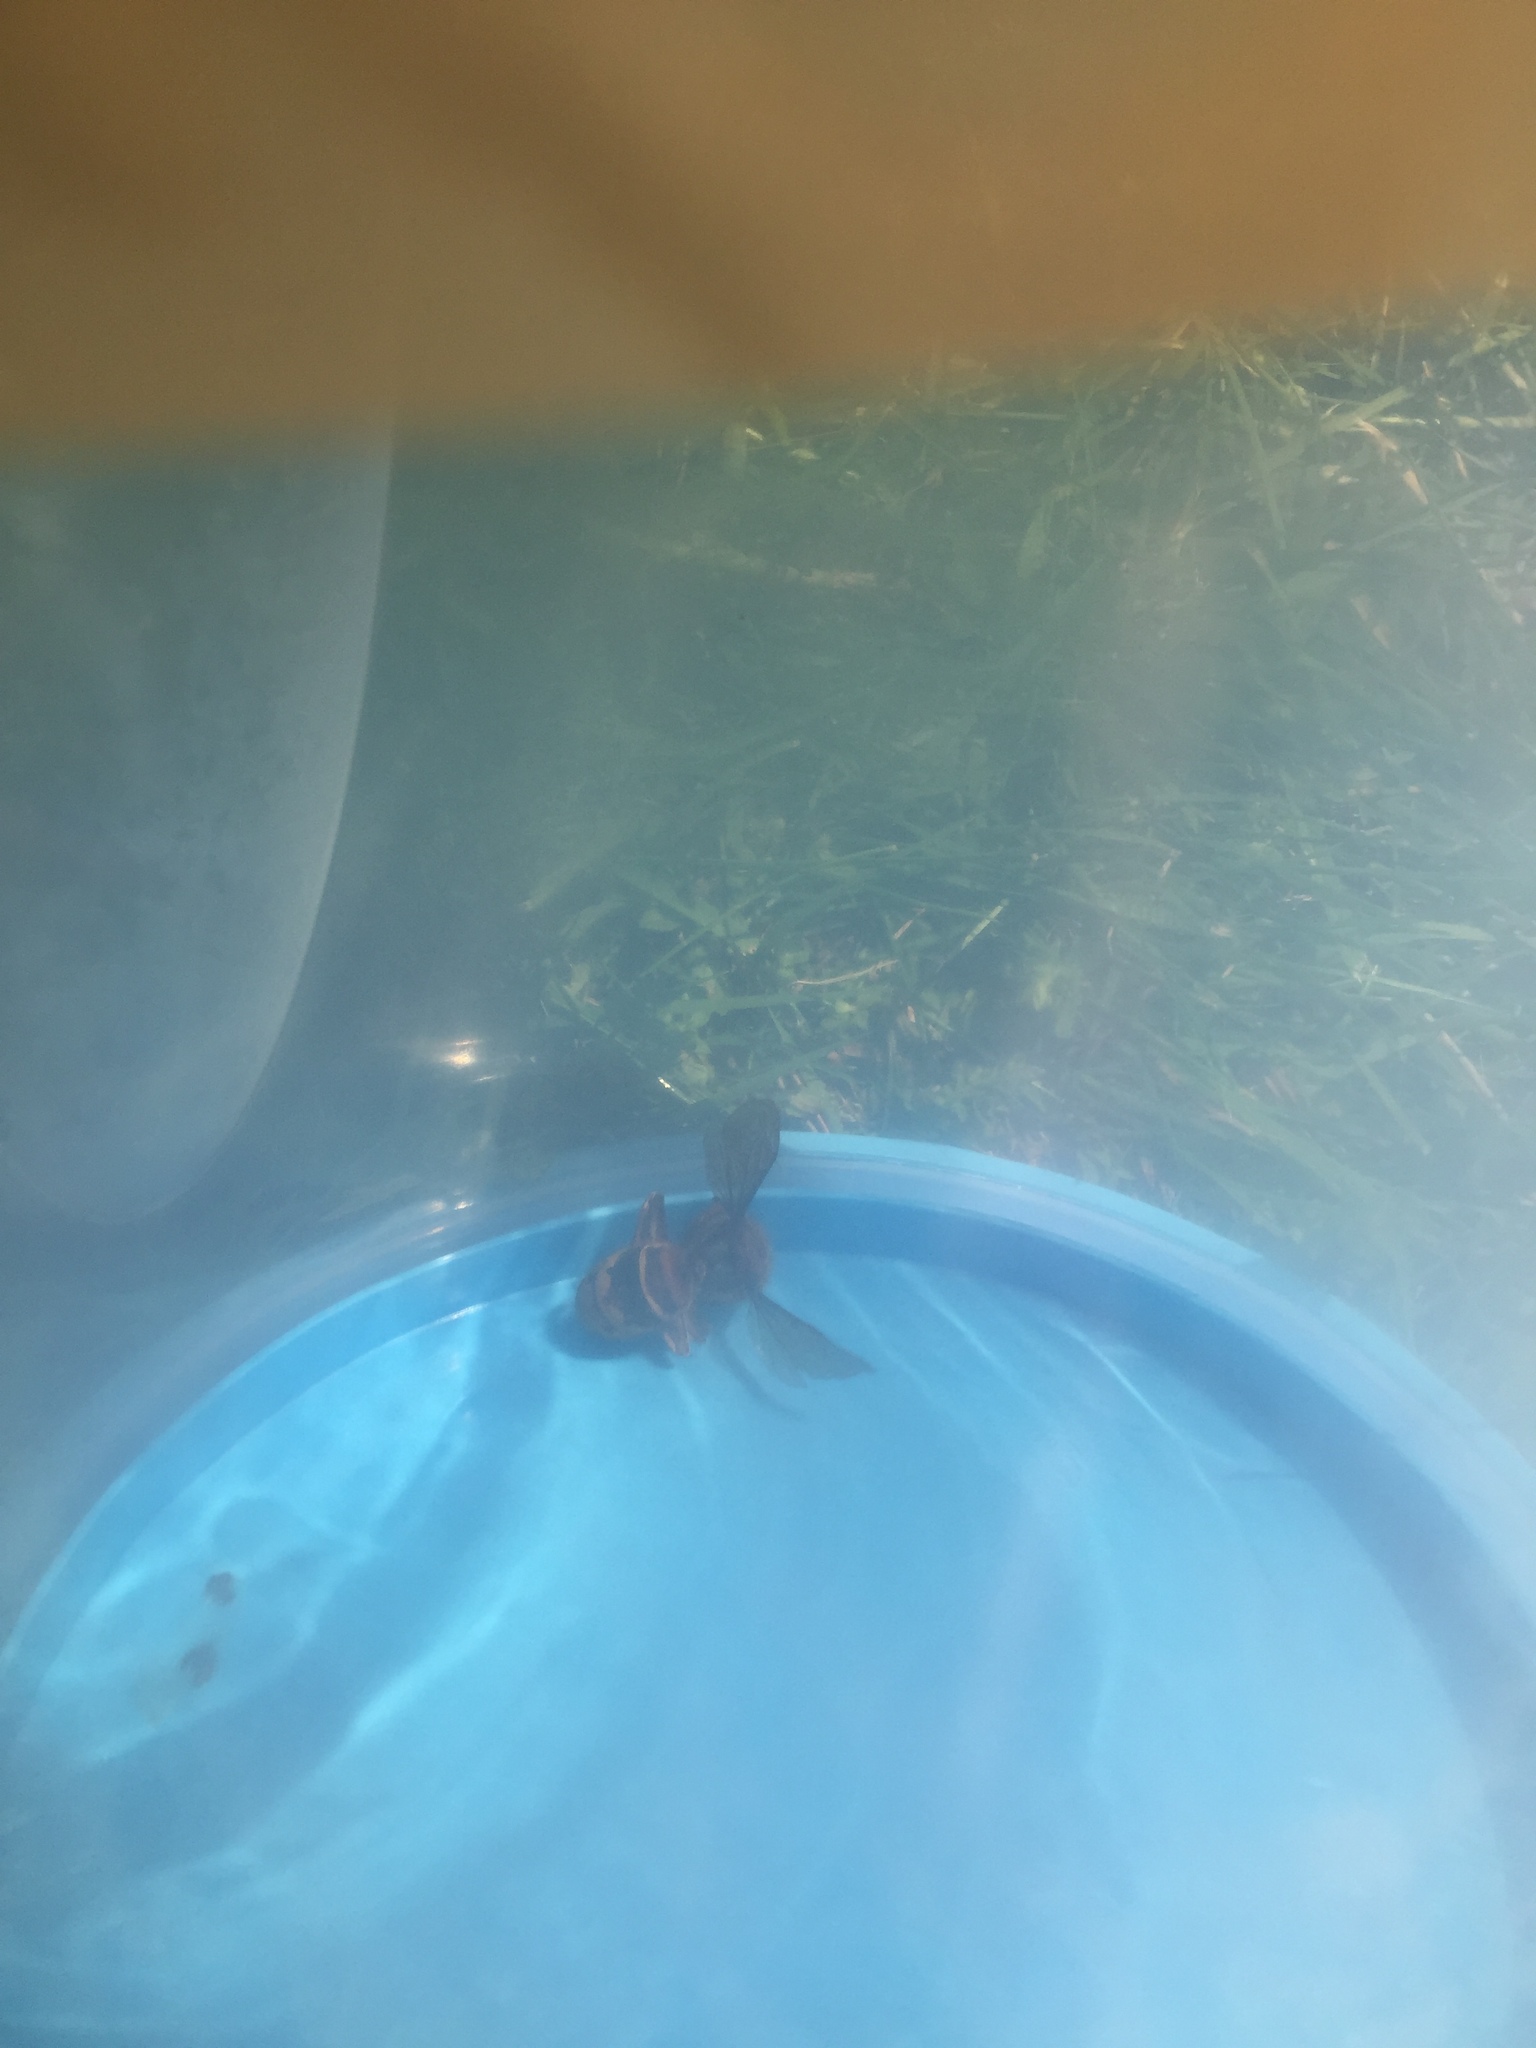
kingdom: Animalia
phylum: Arthropoda
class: Insecta
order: Hymenoptera
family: Vespidae
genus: Vespa
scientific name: Vespa crabro
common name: Hornet
